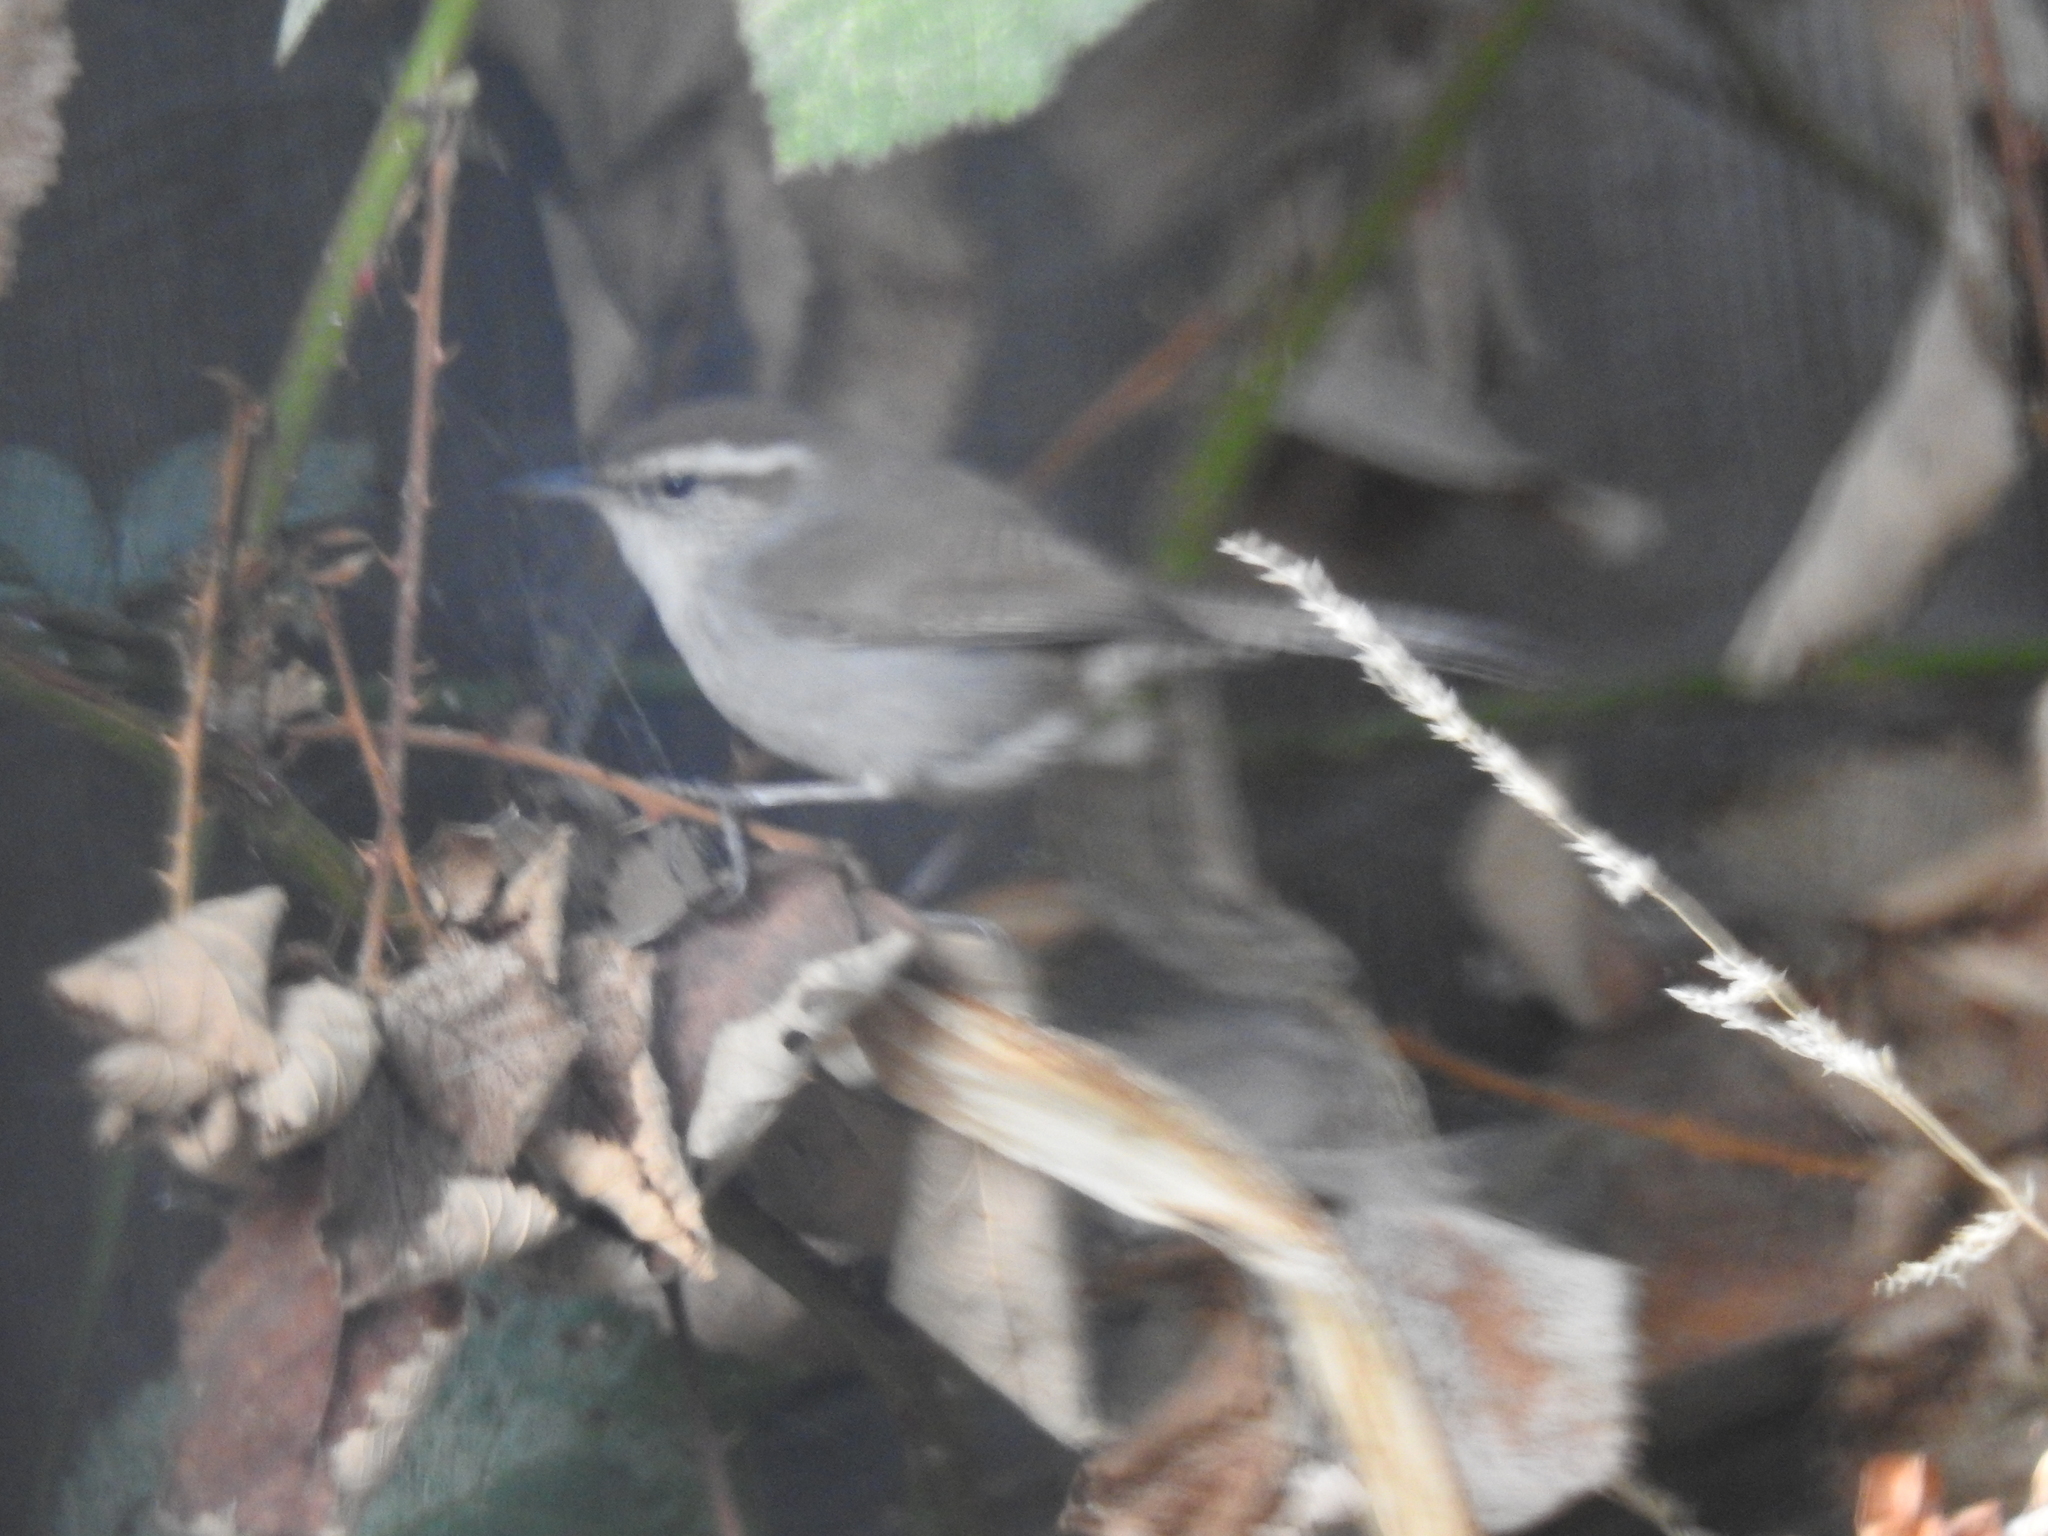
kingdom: Animalia
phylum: Chordata
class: Aves
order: Passeriformes
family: Troglodytidae
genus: Thryomanes
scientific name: Thryomanes bewickii
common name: Bewick's wren
